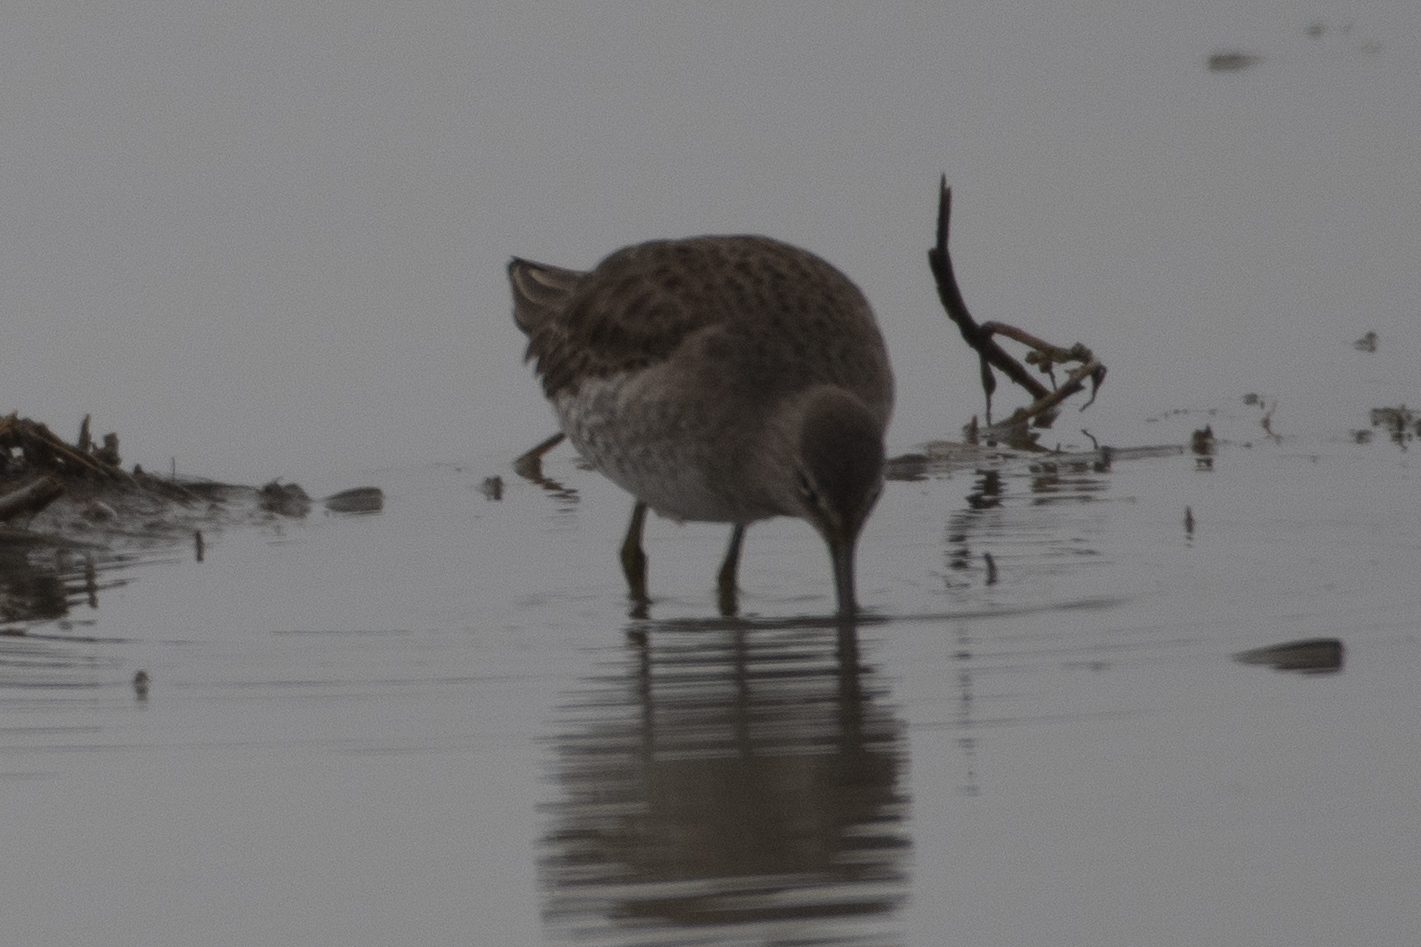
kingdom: Animalia
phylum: Chordata
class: Aves
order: Charadriiformes
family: Scolopacidae
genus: Limnodromus
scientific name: Limnodromus scolopaceus
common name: Long-billed dowitcher
